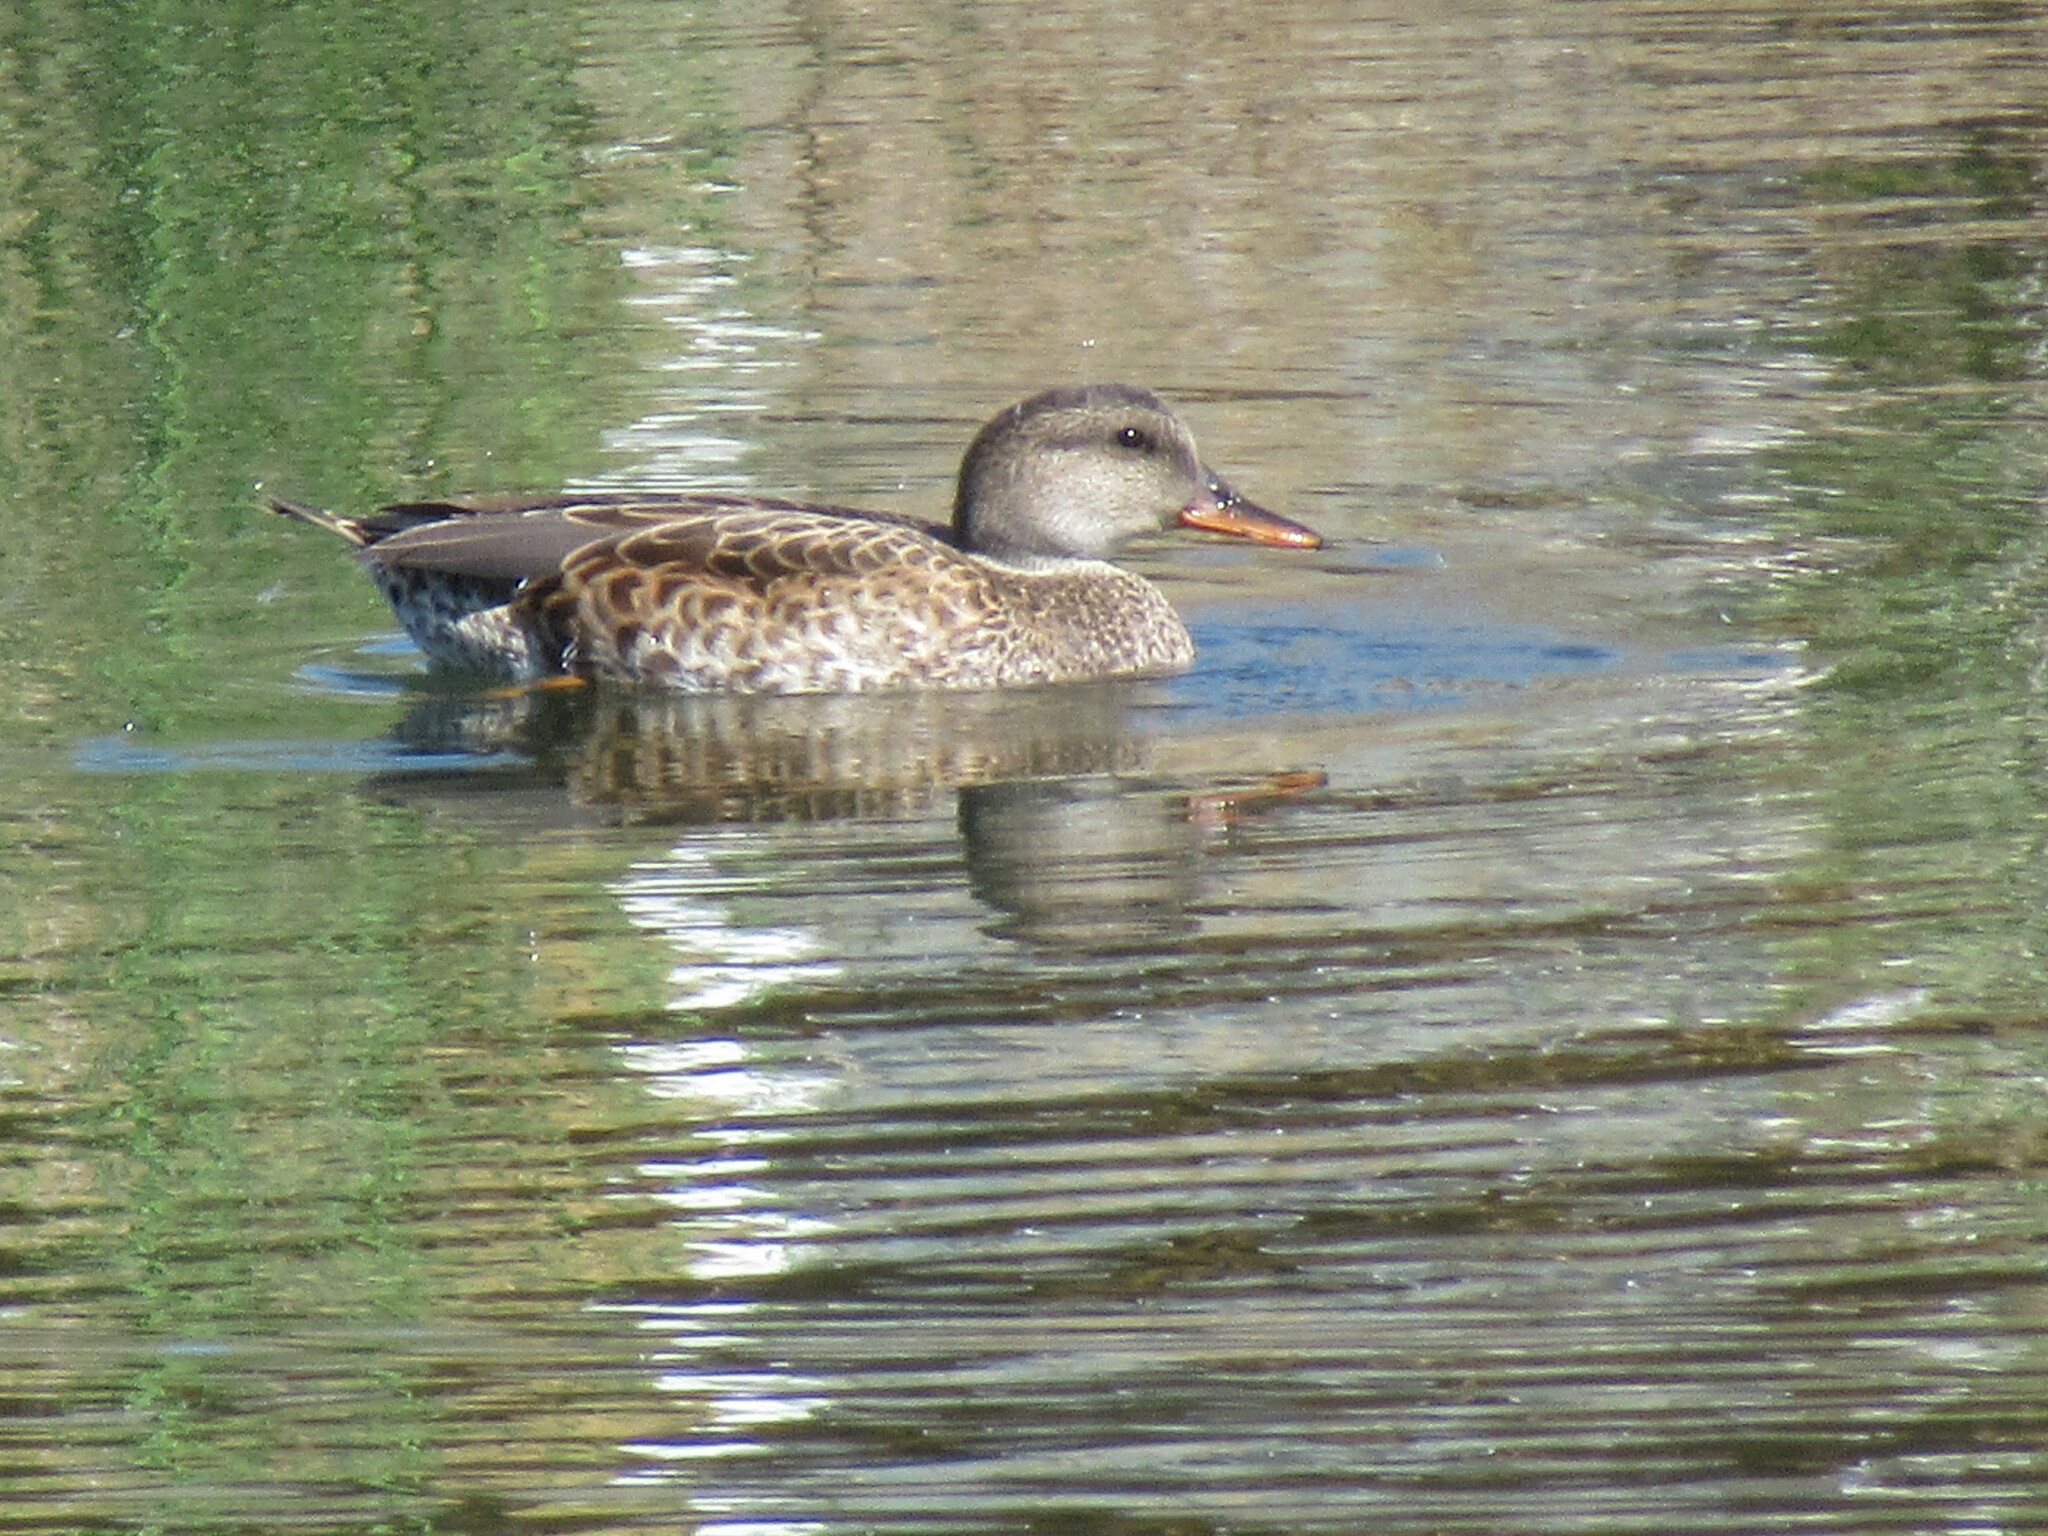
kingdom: Animalia
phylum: Chordata
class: Aves
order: Anseriformes
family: Anatidae
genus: Mareca
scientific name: Mareca strepera
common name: Gadwall
